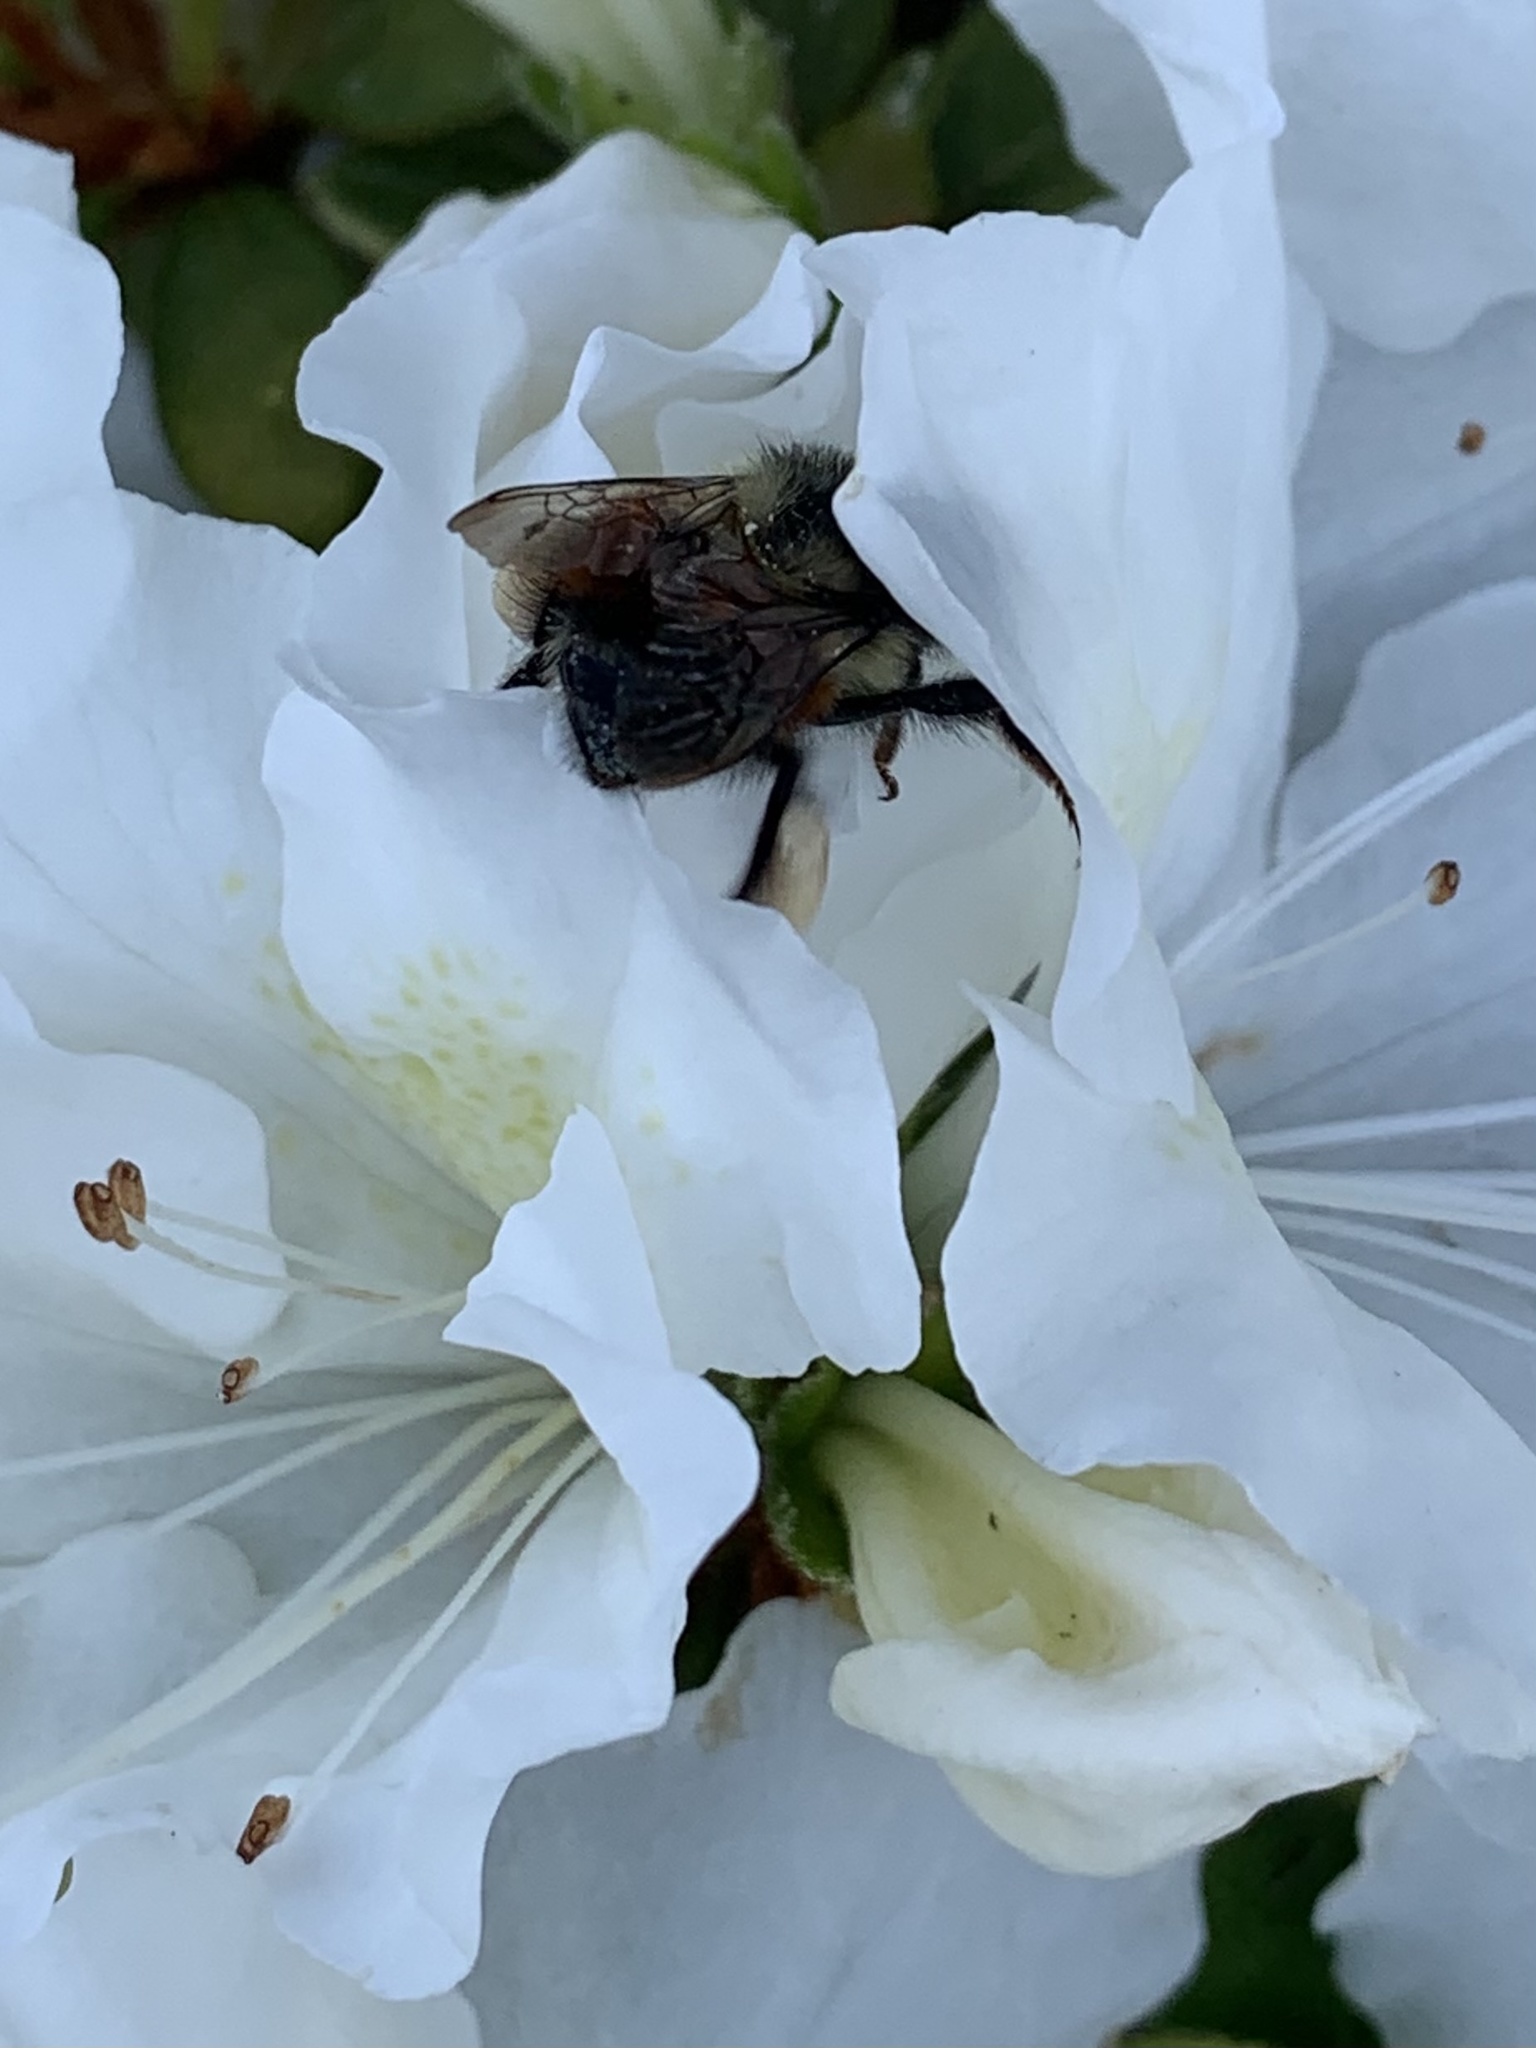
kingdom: Animalia
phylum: Arthropoda
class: Insecta
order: Hymenoptera
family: Apidae
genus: Bombus
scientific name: Bombus melanopygus
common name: Black tail bumble bee
